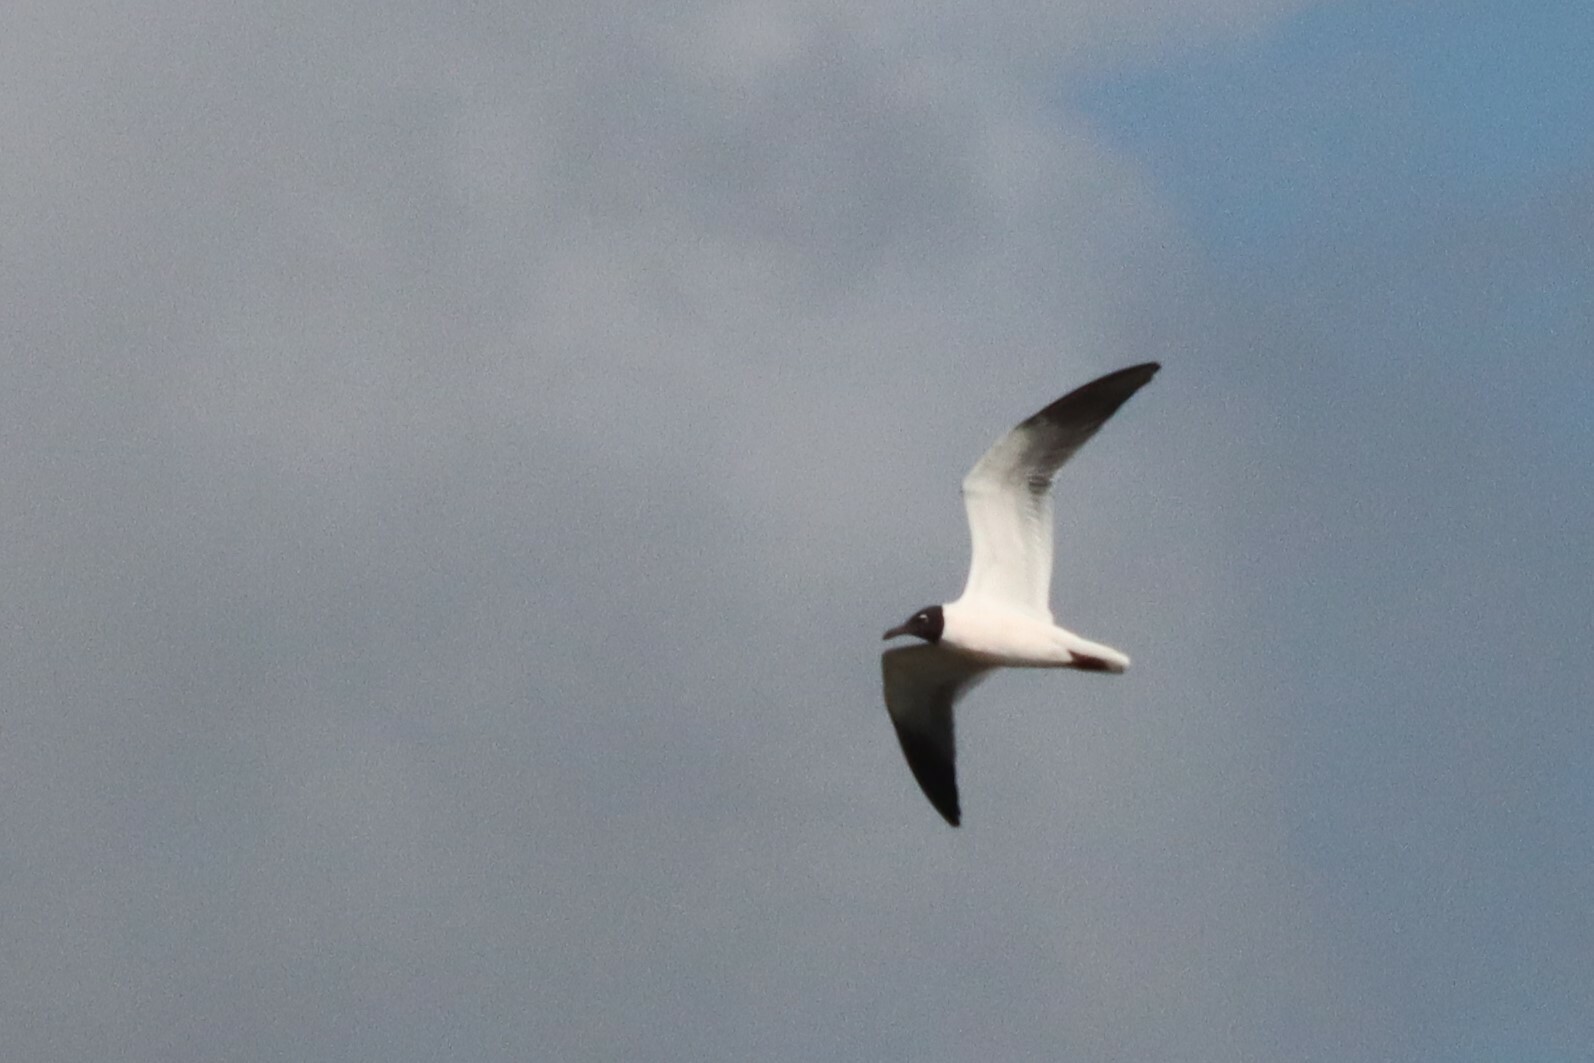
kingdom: Animalia
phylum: Chordata
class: Aves
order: Charadriiformes
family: Laridae
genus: Leucophaeus
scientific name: Leucophaeus atricilla
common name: Laughing gull
